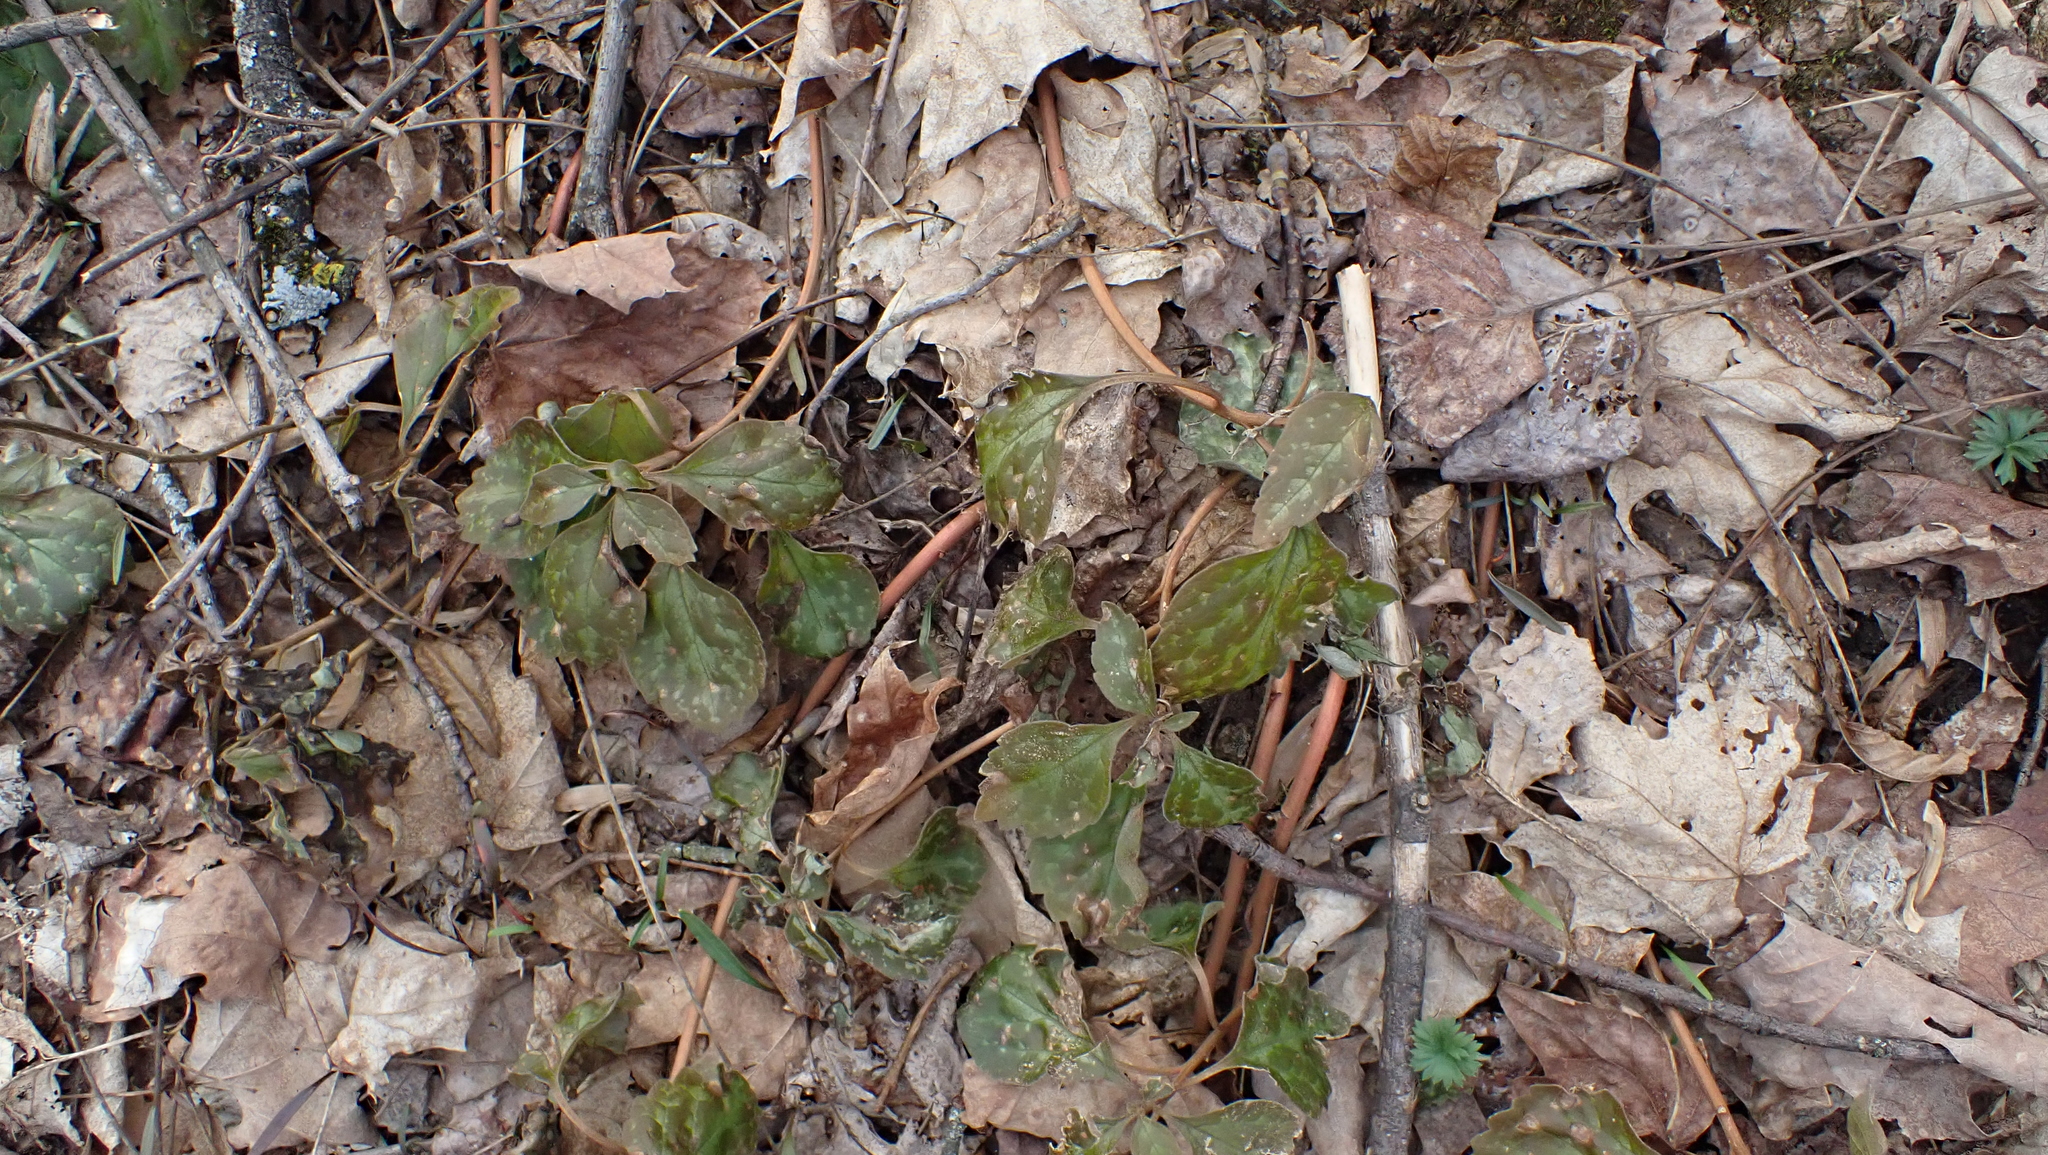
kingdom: Plantae
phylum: Tracheophyta
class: Magnoliopsida
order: Buxales
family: Buxaceae
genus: Pachysandra
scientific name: Pachysandra procumbens
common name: Mountain-spurge
